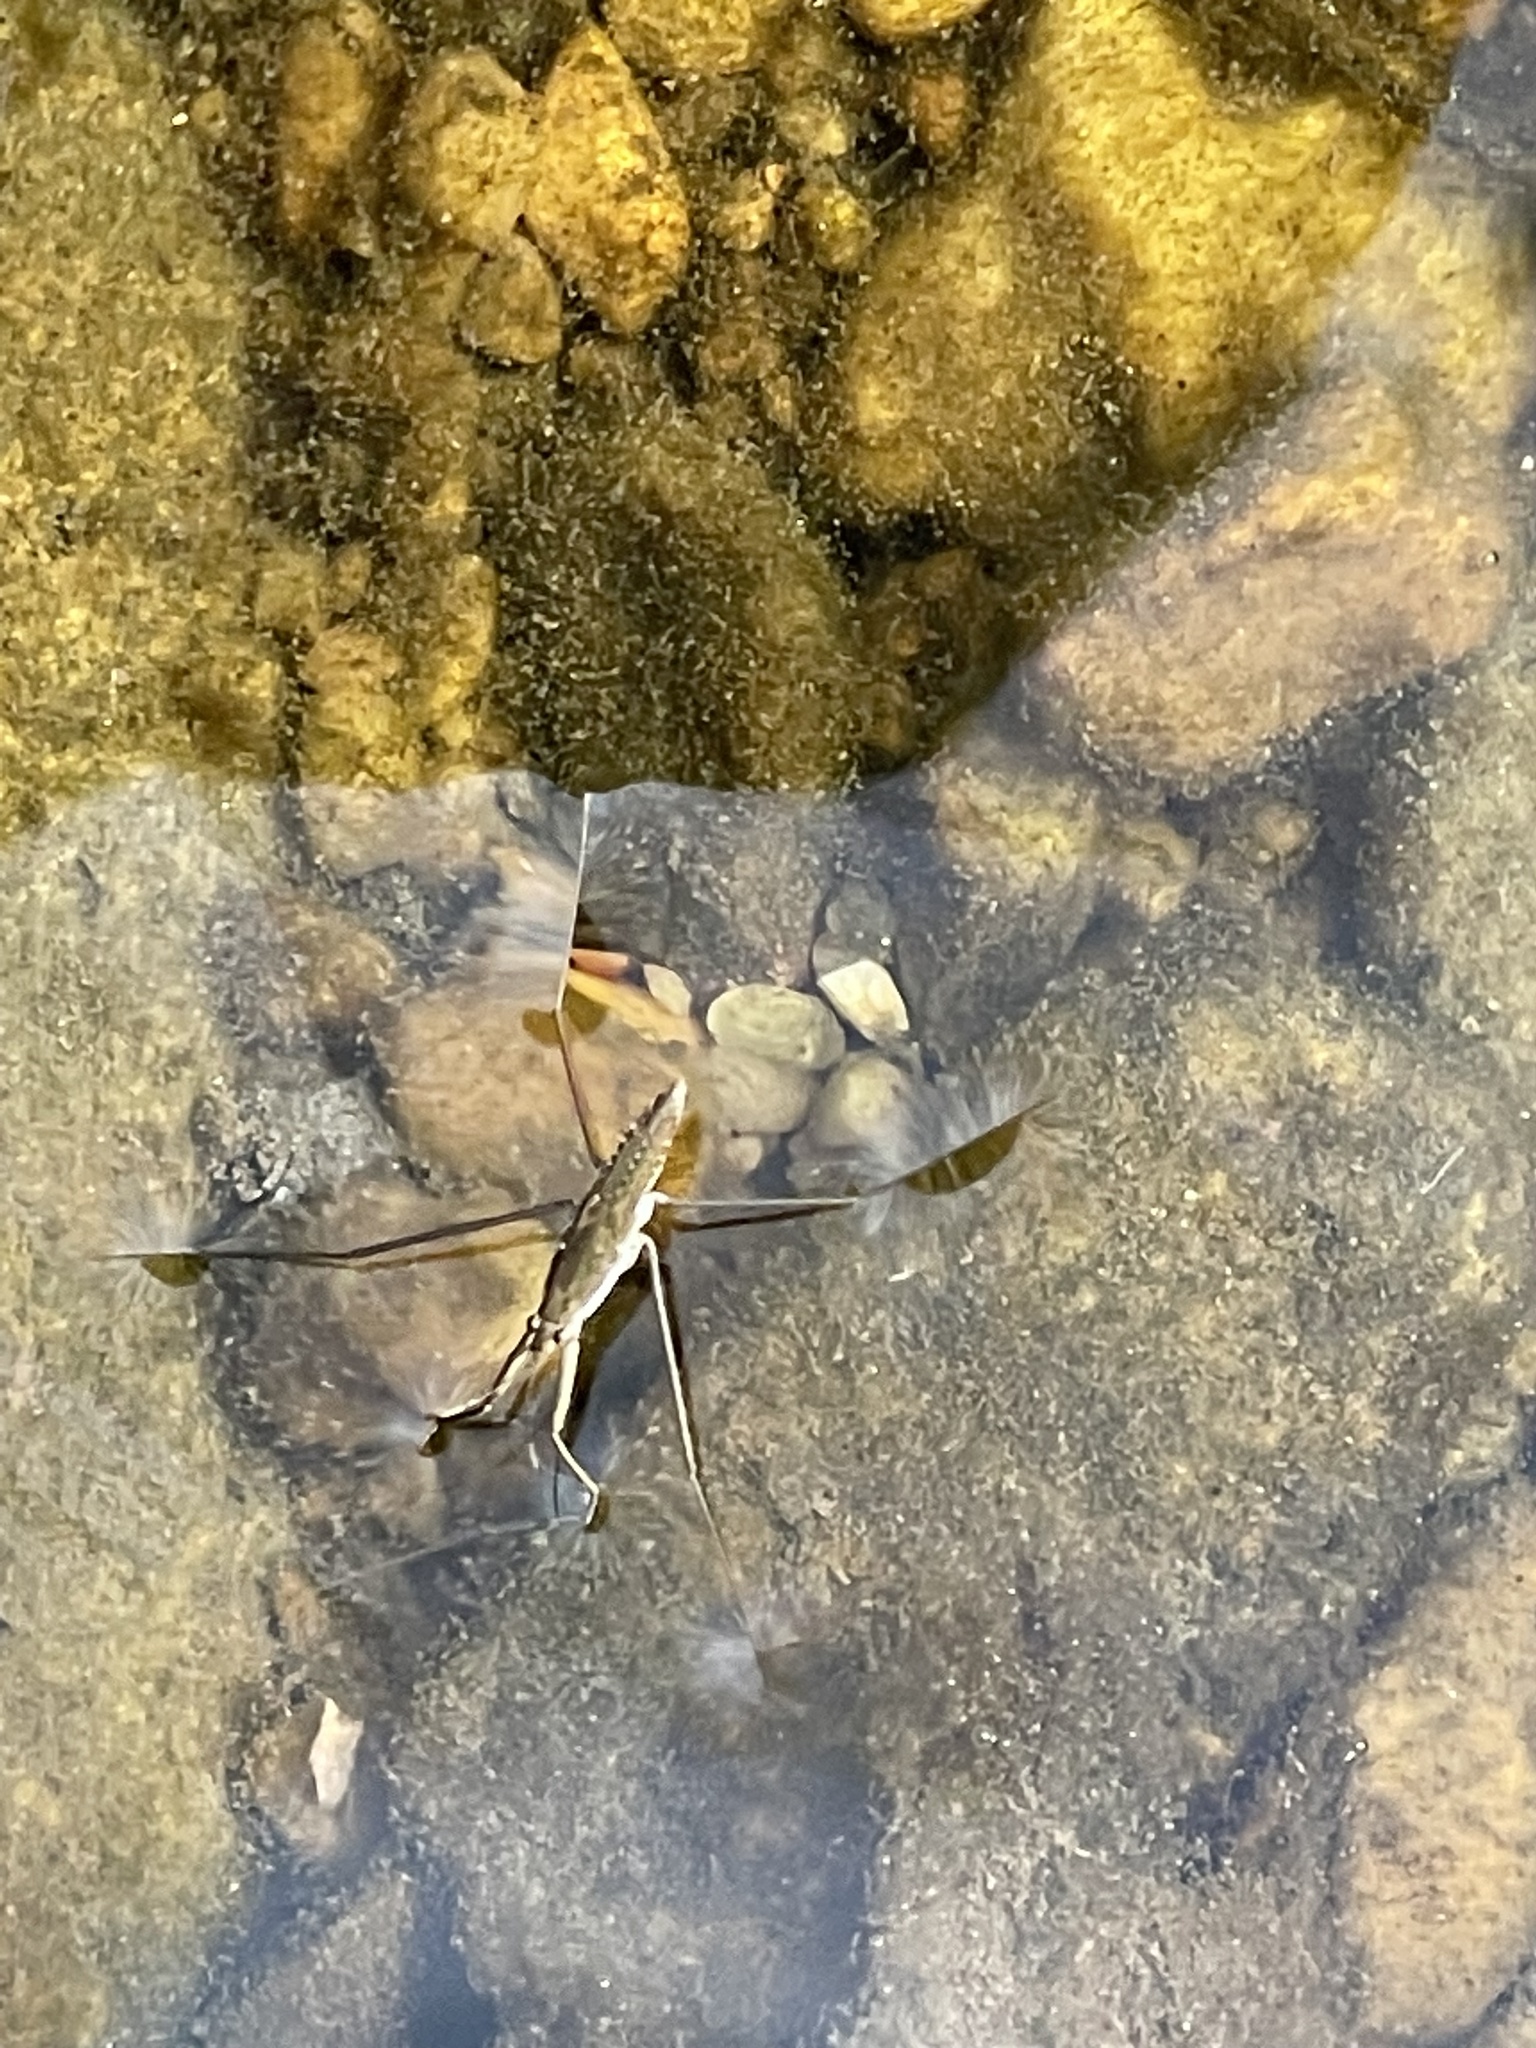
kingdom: Animalia
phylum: Arthropoda
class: Insecta
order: Hemiptera
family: Gerridae
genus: Aquarius
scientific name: Aquarius remigis
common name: Common water strider
